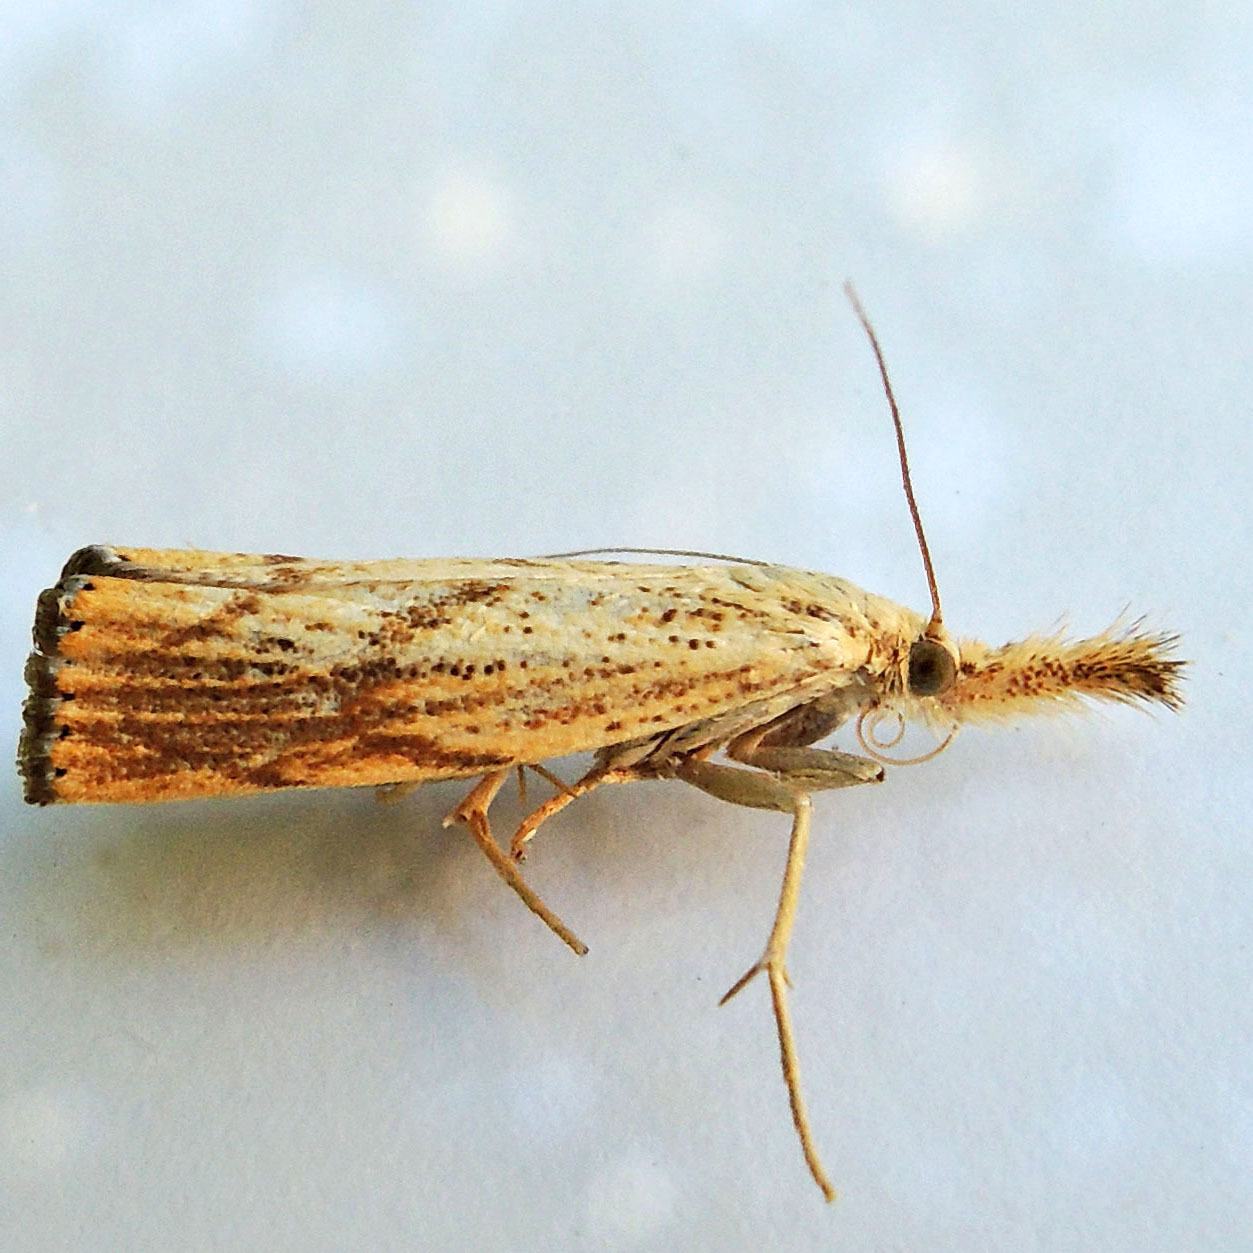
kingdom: Animalia
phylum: Arthropoda
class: Insecta
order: Lepidoptera
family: Crambidae
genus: Agriphila
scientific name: Agriphila ruricolellus
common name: Lesser vagabond sod webworm
